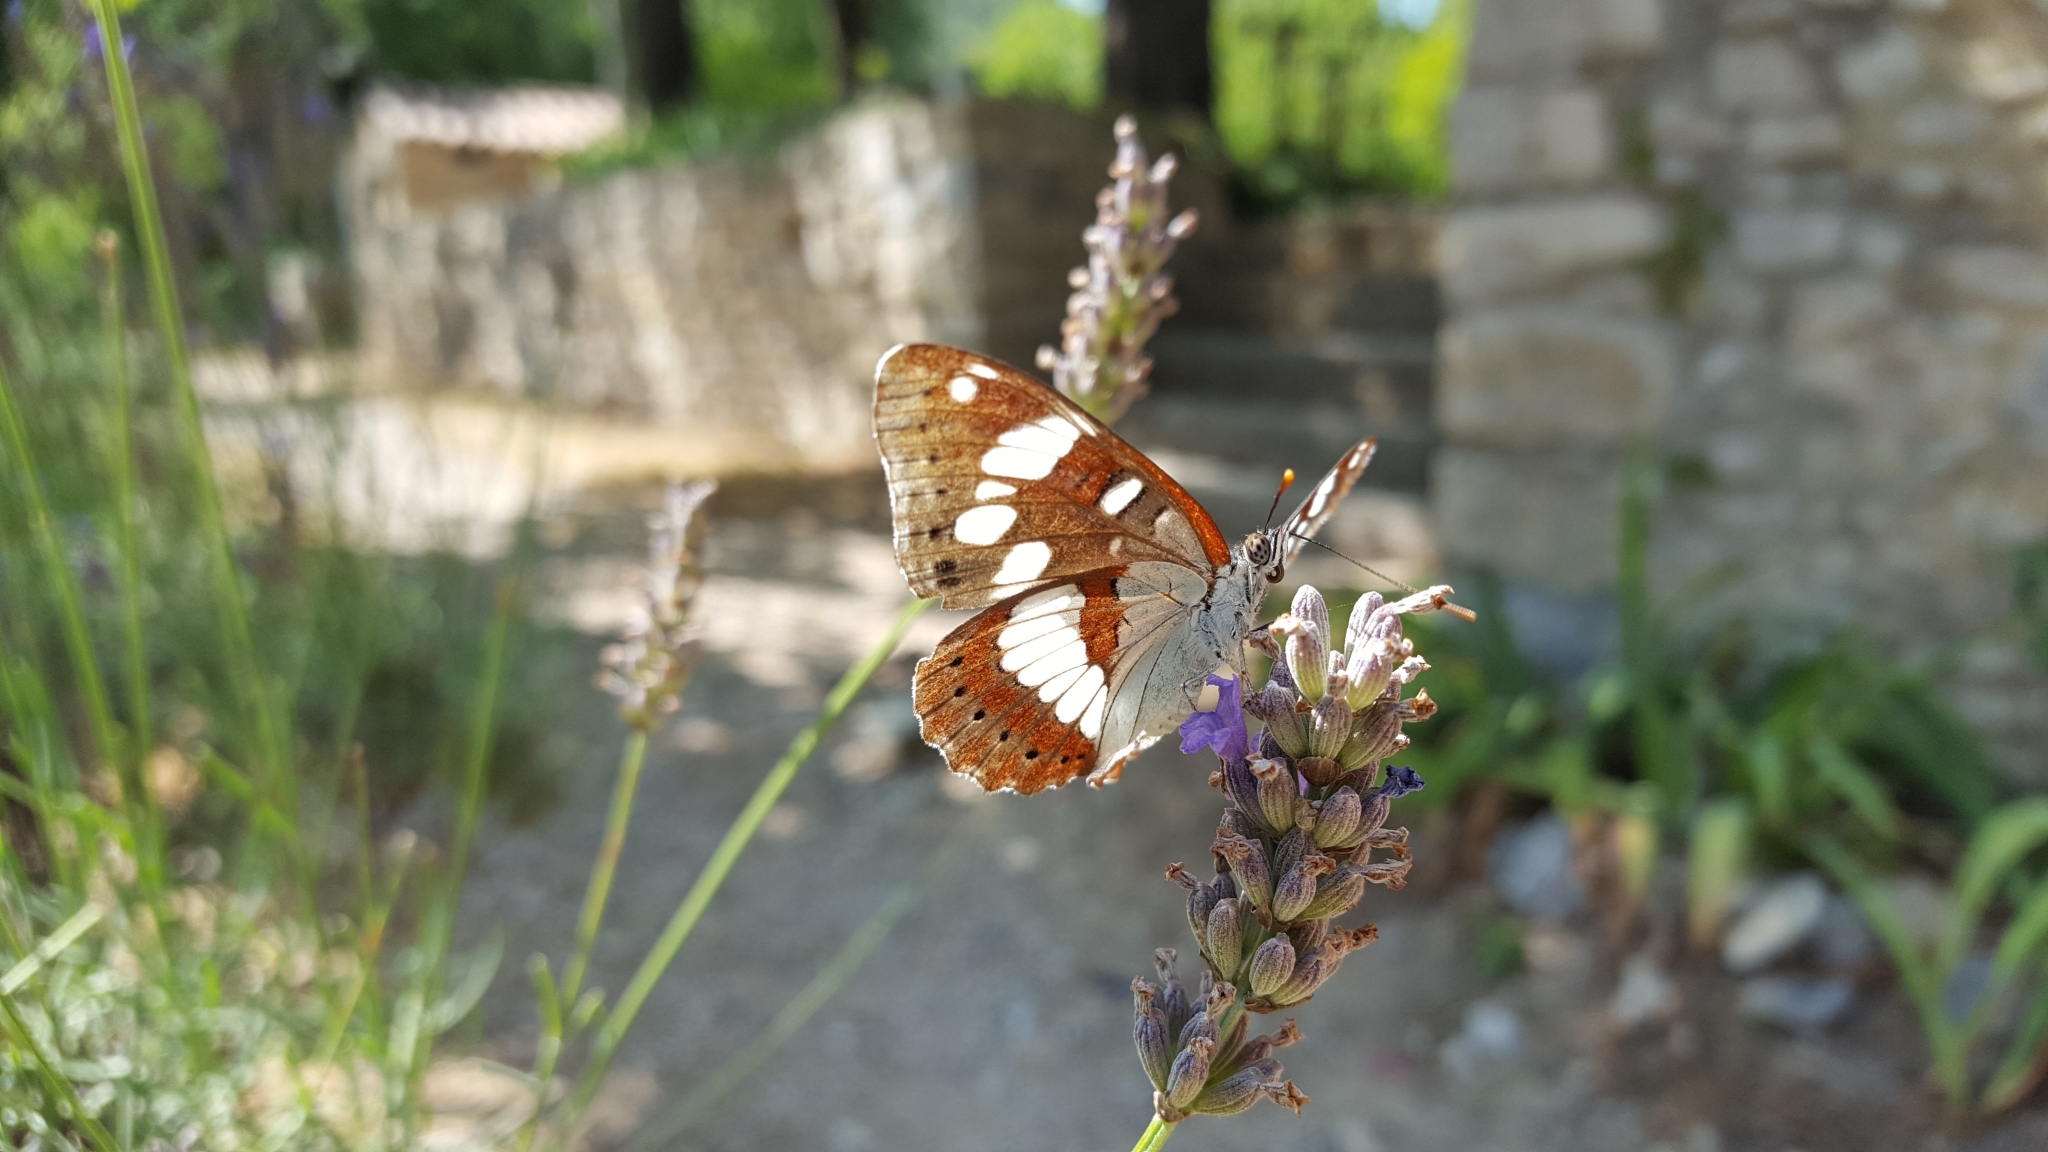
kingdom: Animalia
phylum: Arthropoda
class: Insecta
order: Lepidoptera
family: Nymphalidae
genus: Limenitis
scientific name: Limenitis reducta
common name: Southern white admiral
